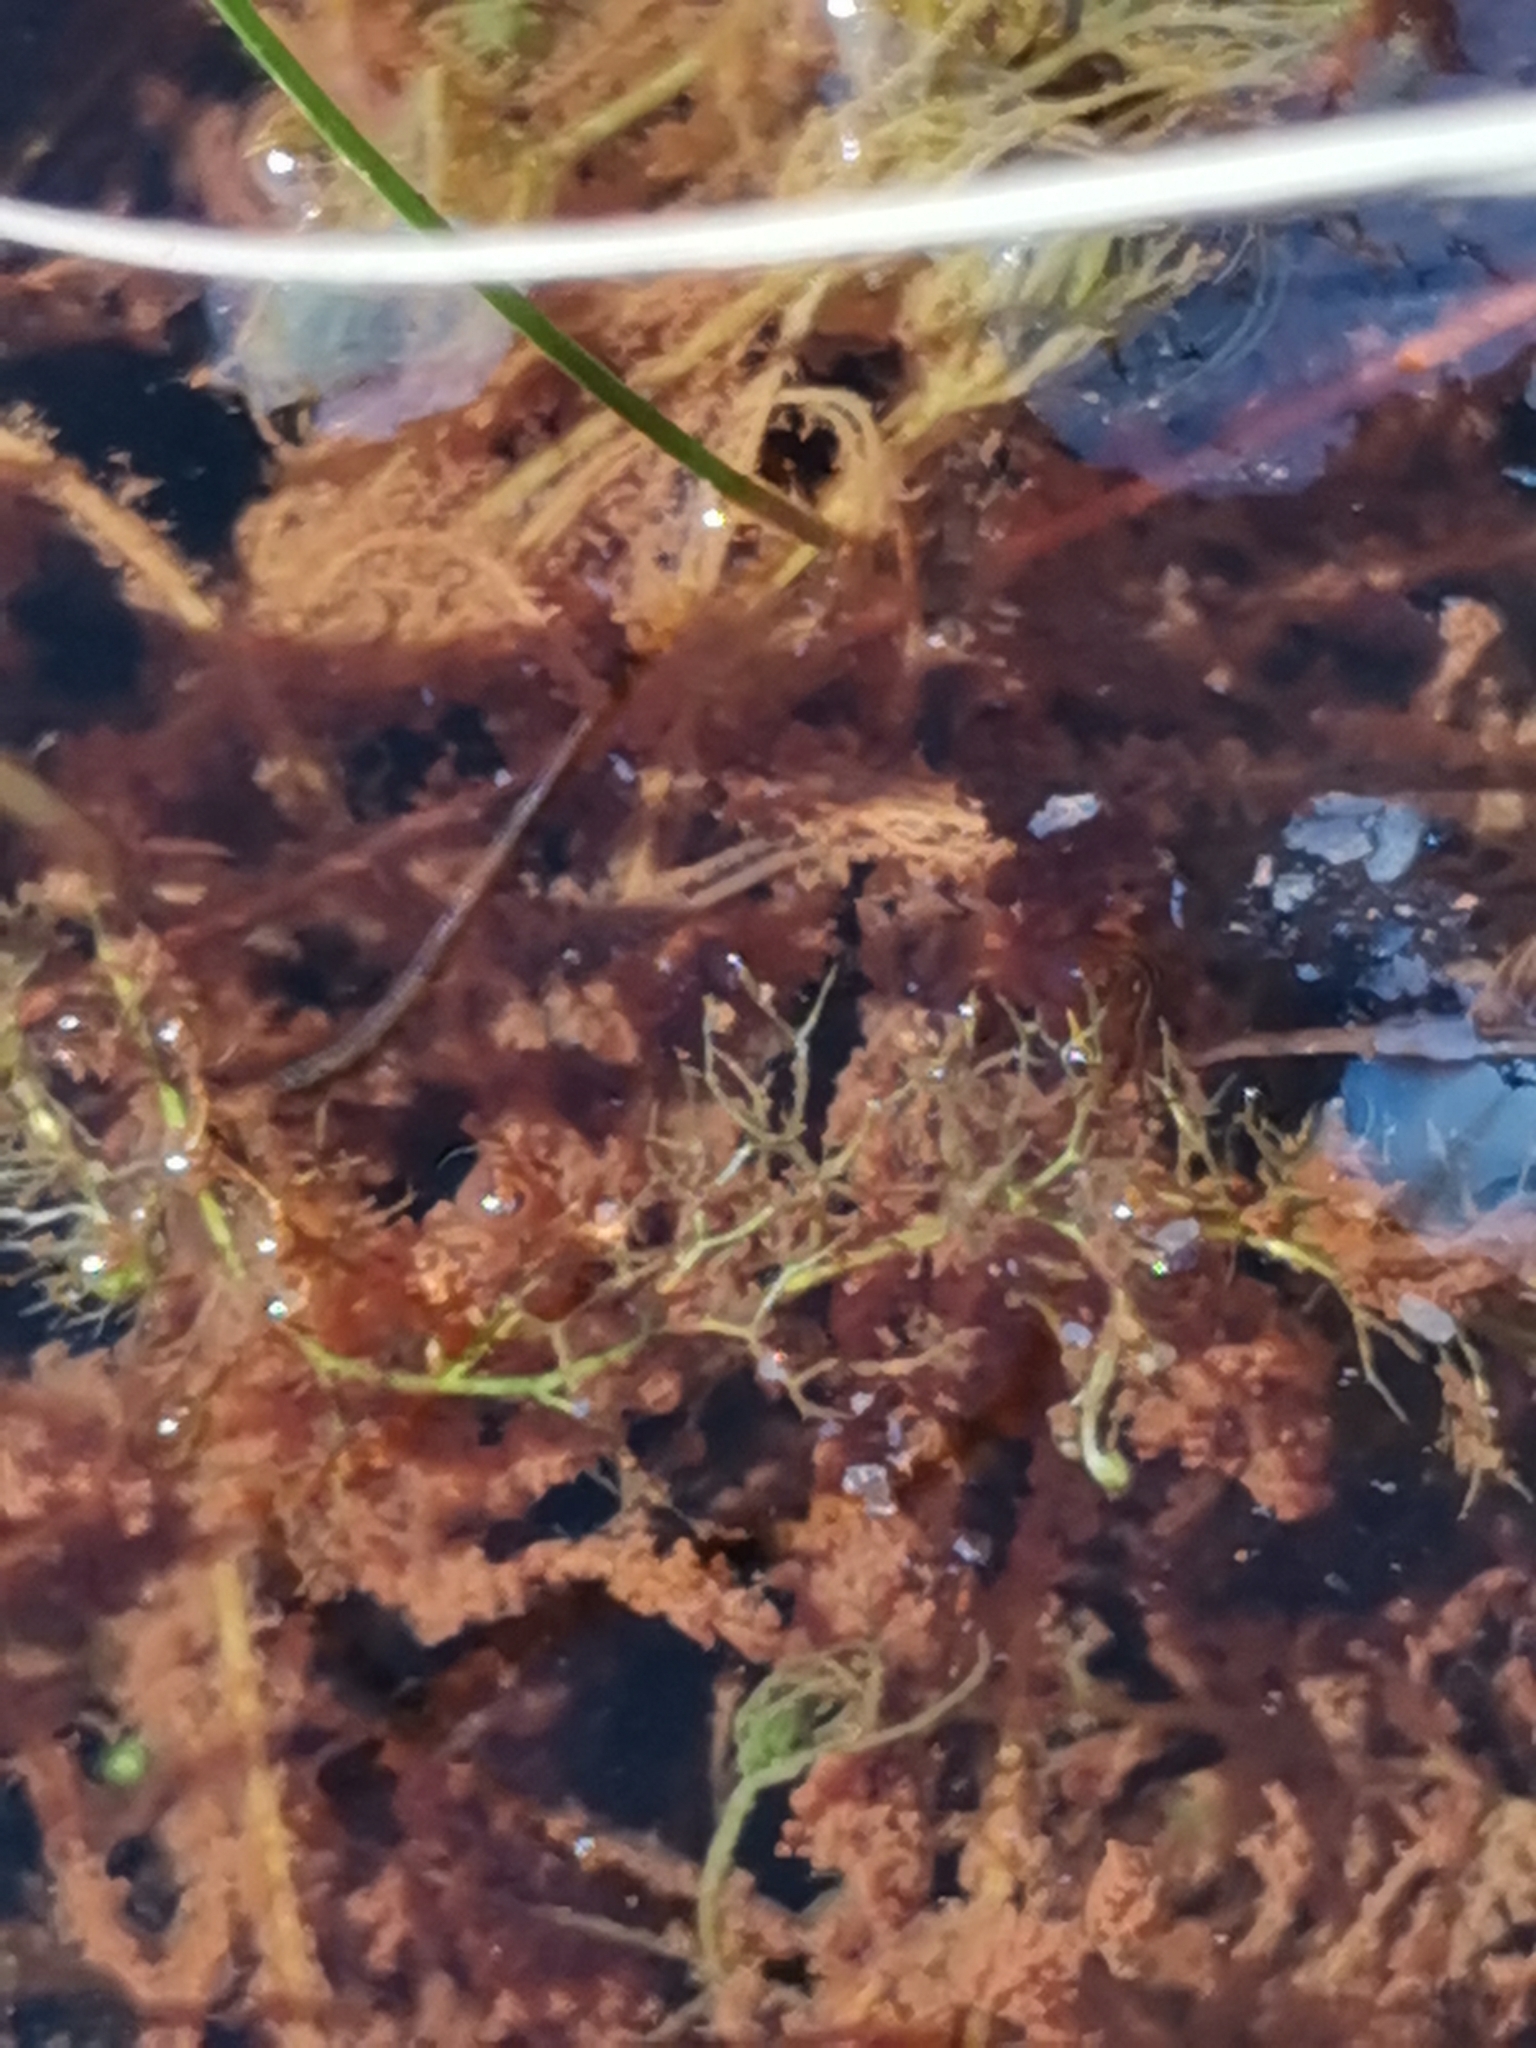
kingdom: Plantae
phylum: Tracheophyta
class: Magnoliopsida
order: Lamiales
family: Lentibulariaceae
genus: Utricularia
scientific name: Utricularia bremii
